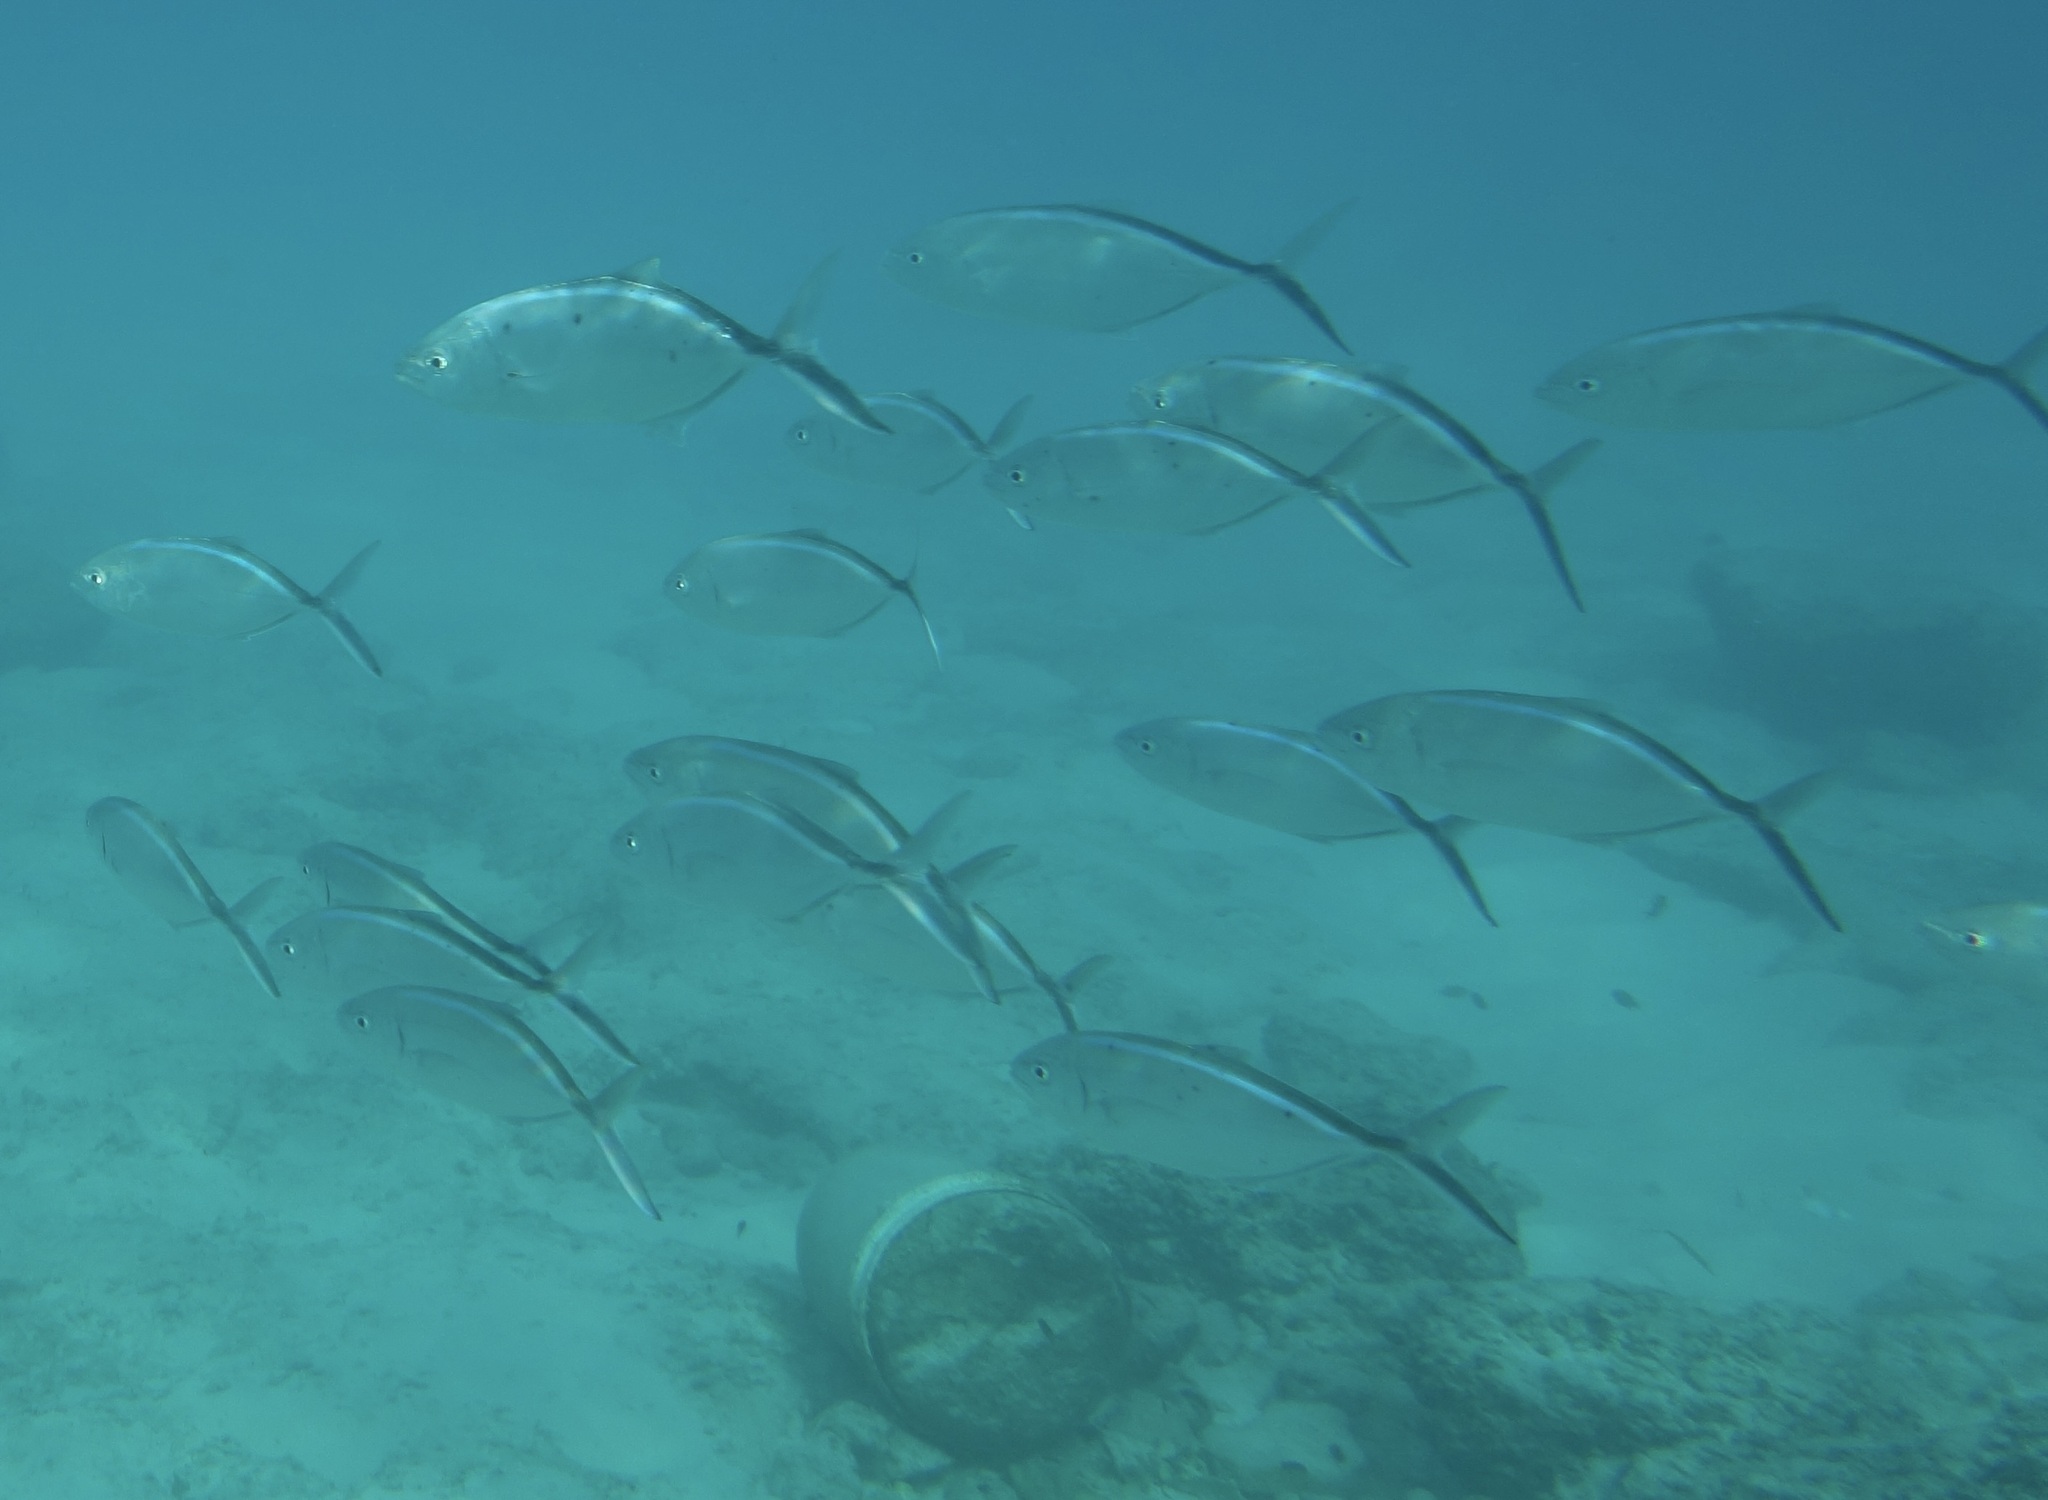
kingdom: Animalia
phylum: Chordata
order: Perciformes
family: Carangidae
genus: Caranx
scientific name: Caranx ruber
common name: Bar jack
